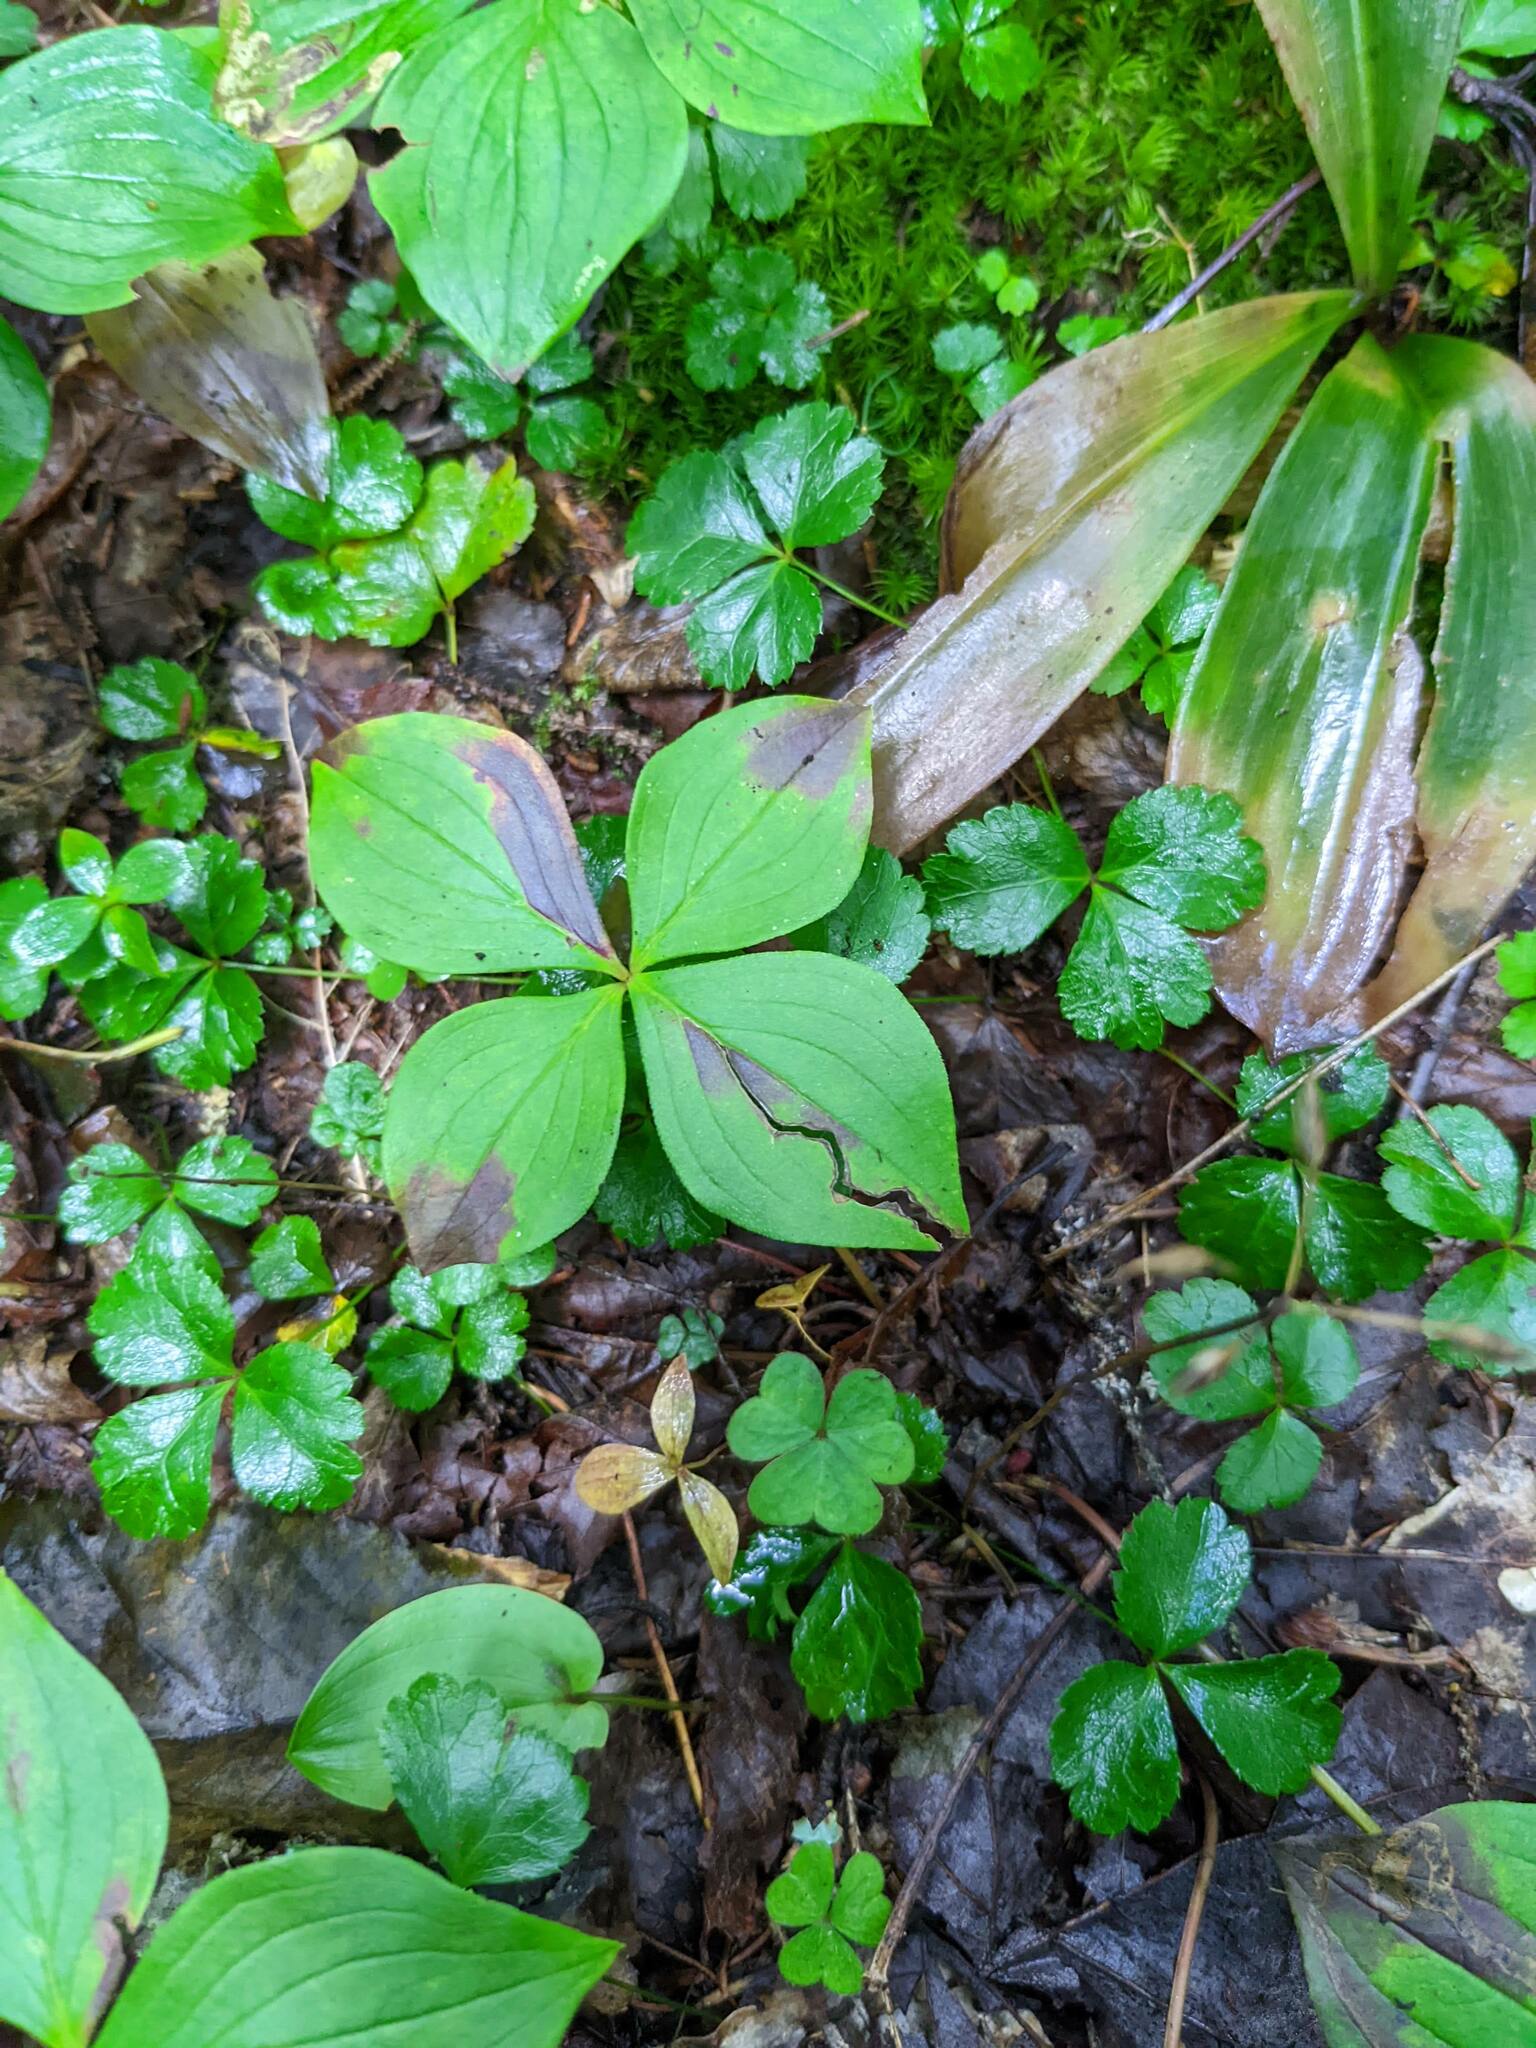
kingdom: Plantae
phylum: Tracheophyta
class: Magnoliopsida
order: Cornales
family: Cornaceae
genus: Cornus
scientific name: Cornus canadensis
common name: Creeping dogwood
